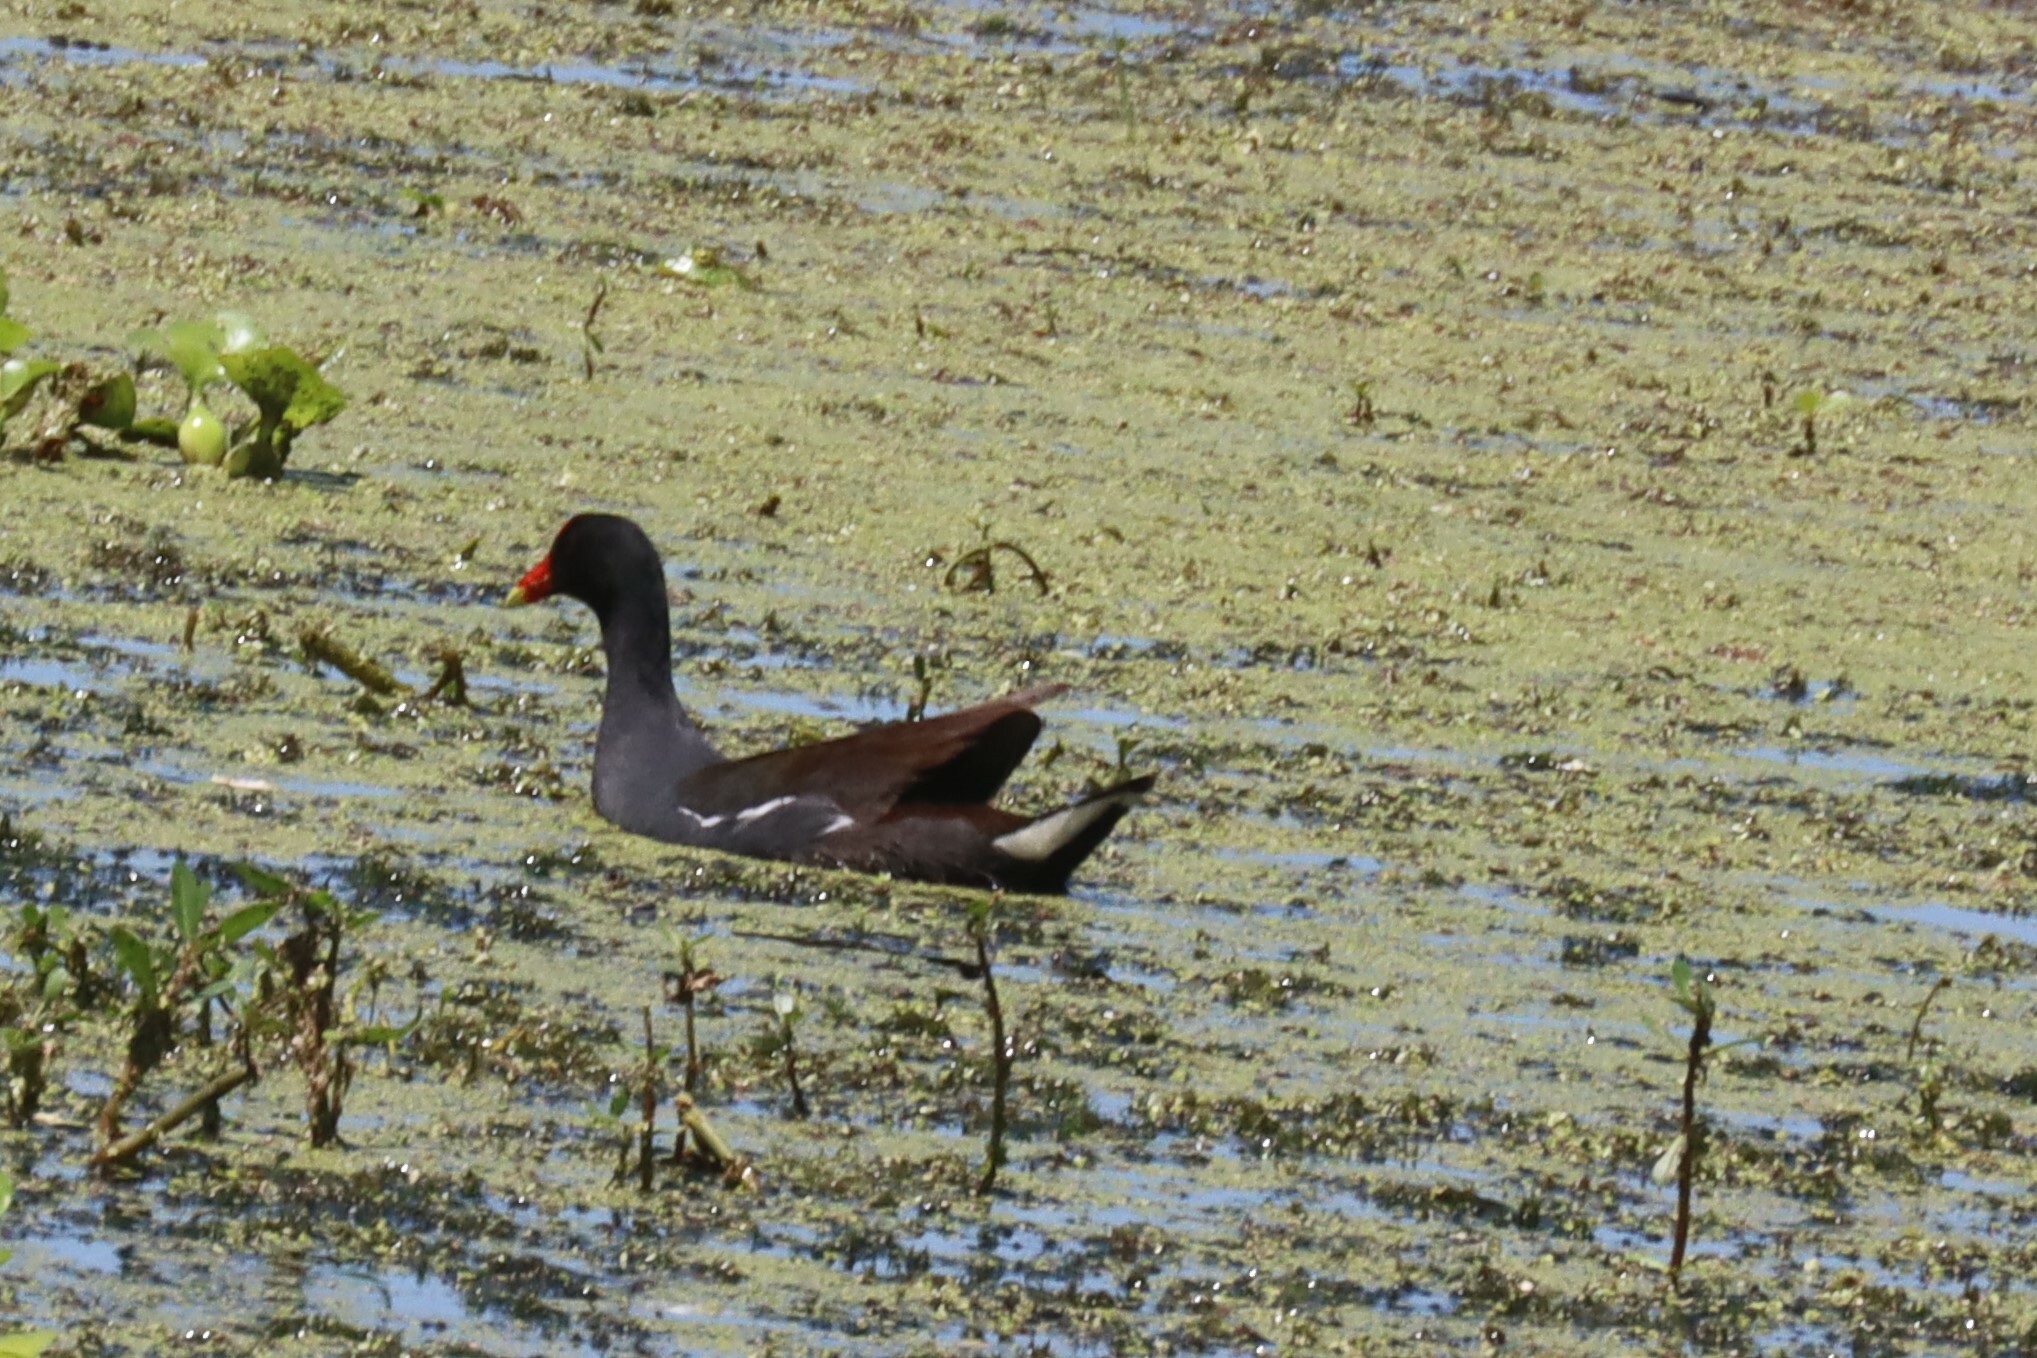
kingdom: Animalia
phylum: Chordata
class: Aves
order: Gruiformes
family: Rallidae
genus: Gallinula
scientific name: Gallinula chloropus
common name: Common moorhen
